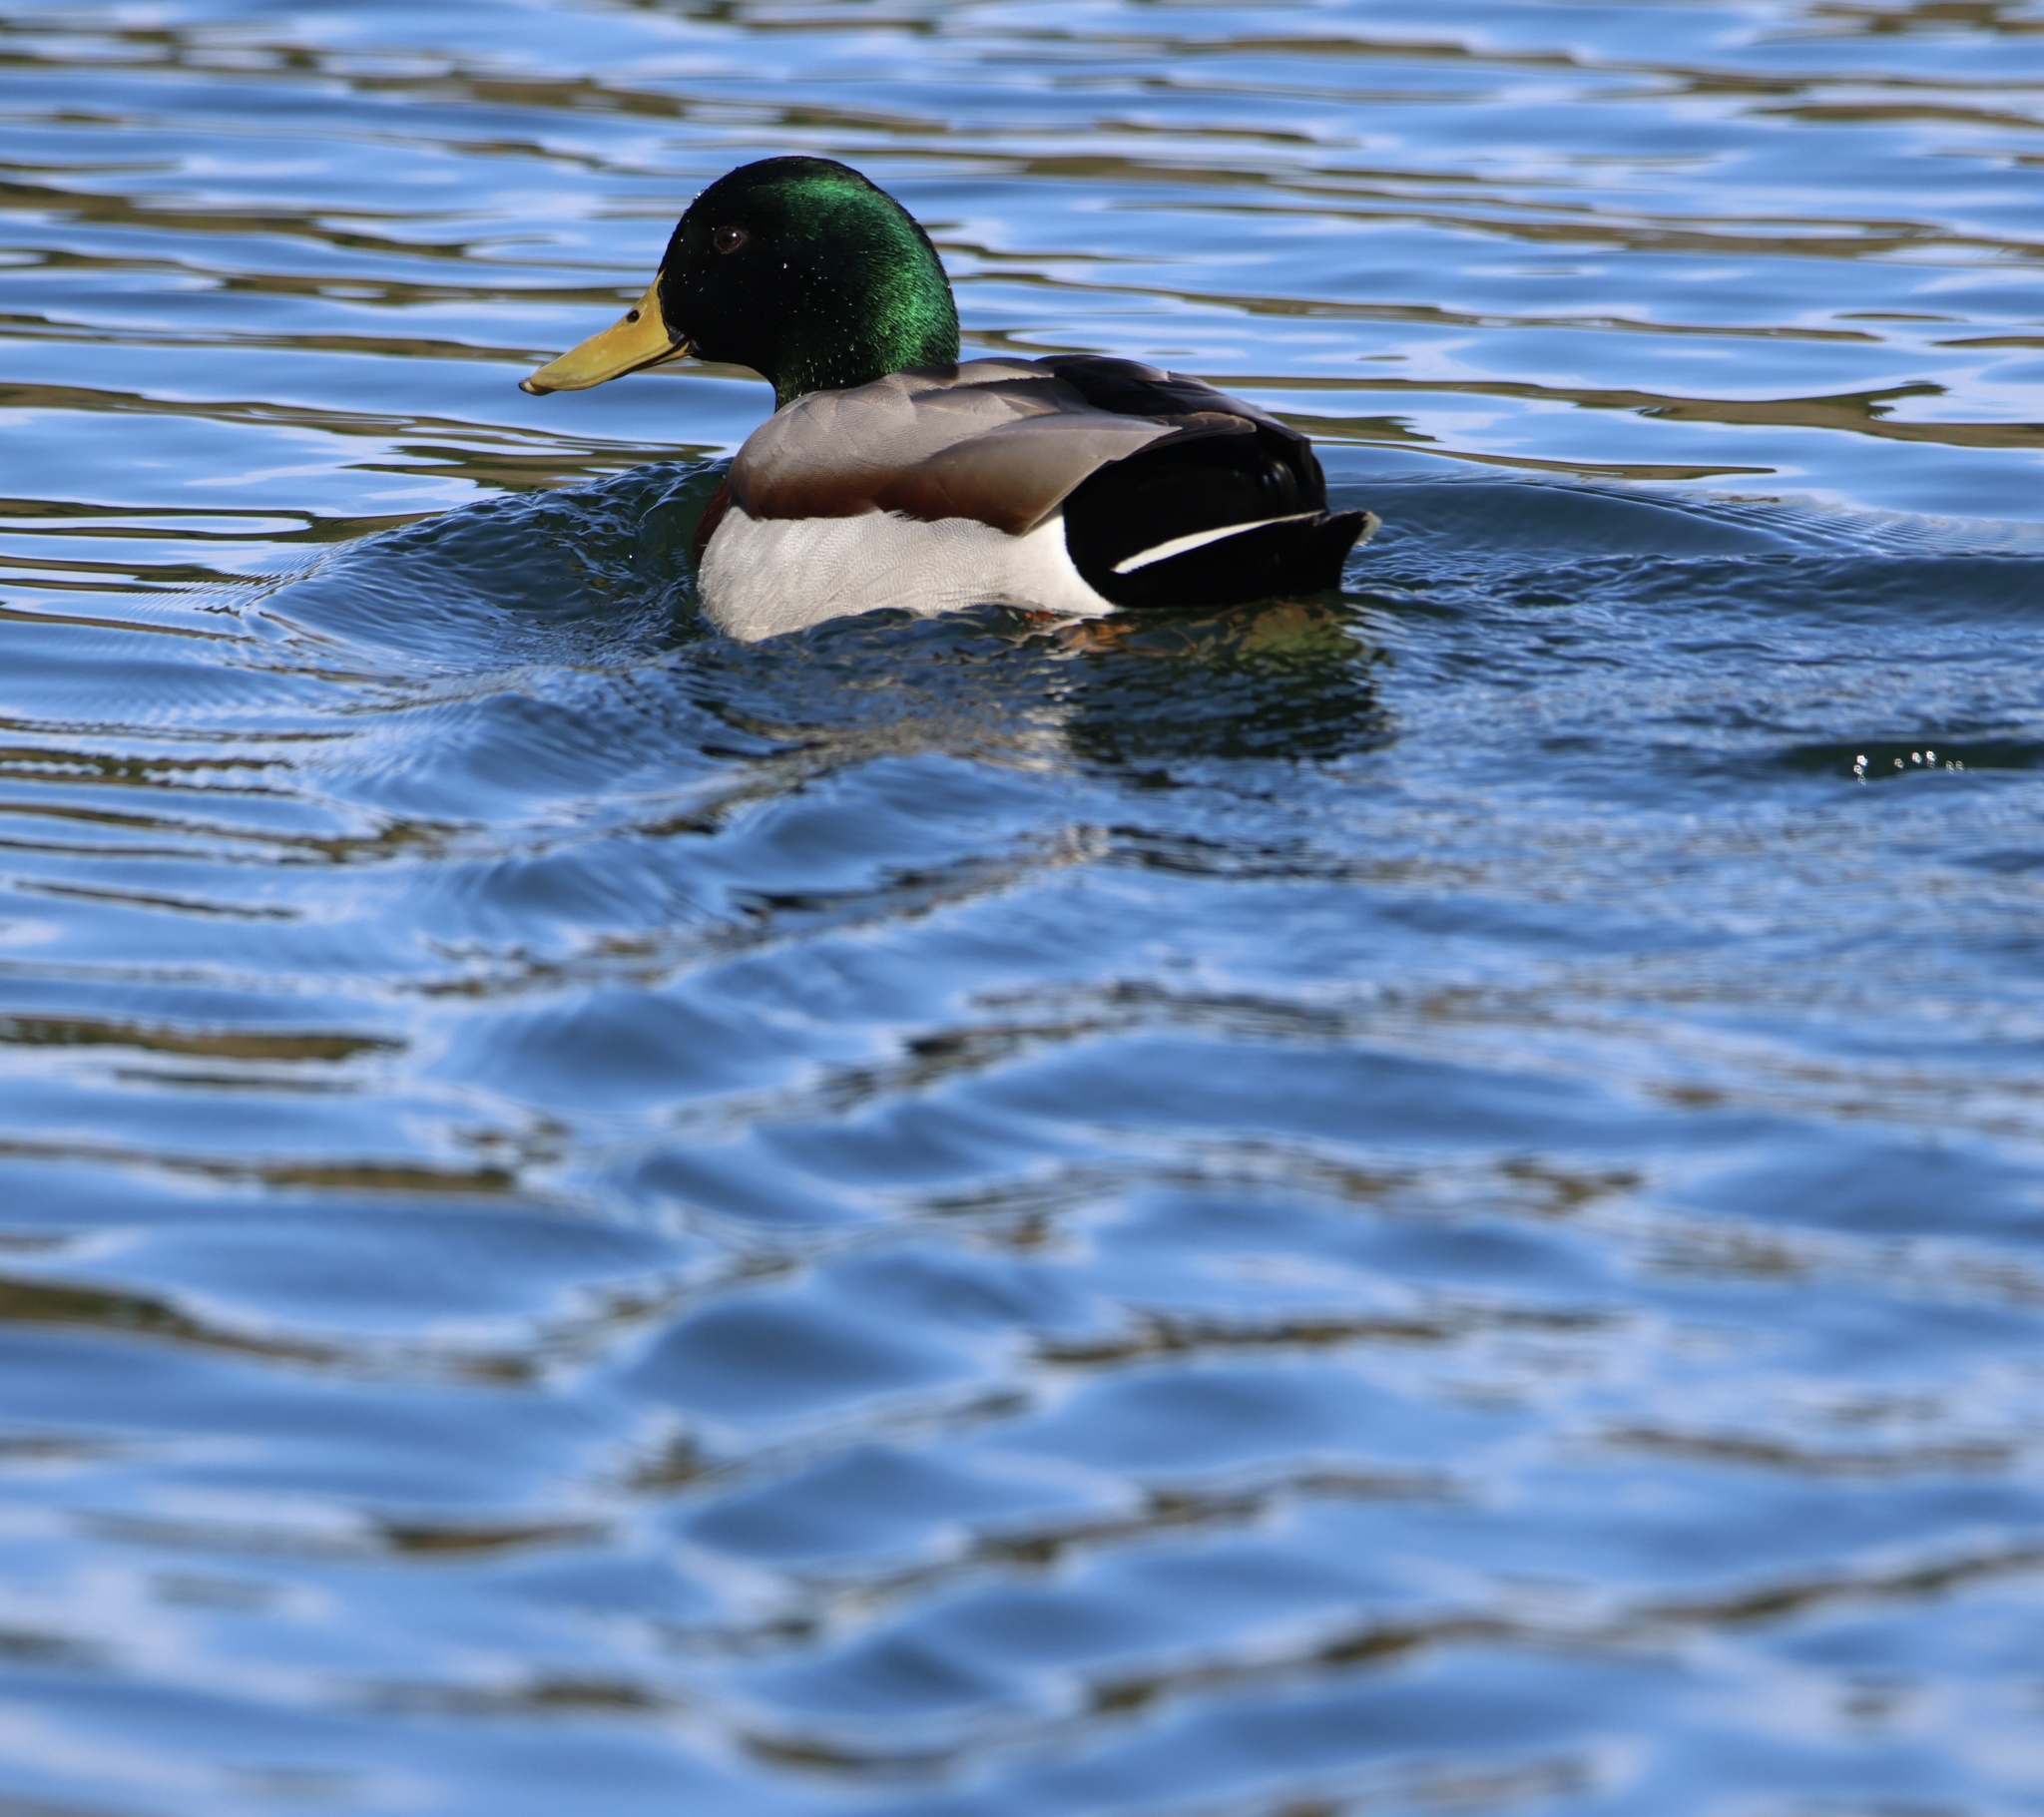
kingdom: Animalia
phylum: Chordata
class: Aves
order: Anseriformes
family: Anatidae
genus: Anas
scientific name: Anas platyrhynchos
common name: Mallard
